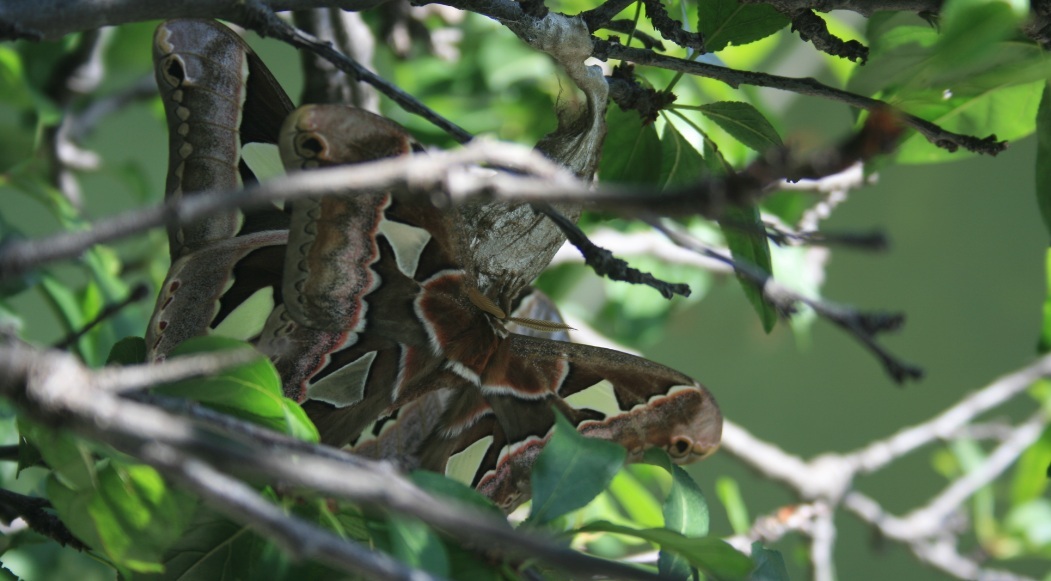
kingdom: Animalia
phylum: Arthropoda
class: Insecta
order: Lepidoptera
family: Saturniidae
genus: Rothschildia
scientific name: Rothschildia lebeau
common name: Lebeau's rothschildia
